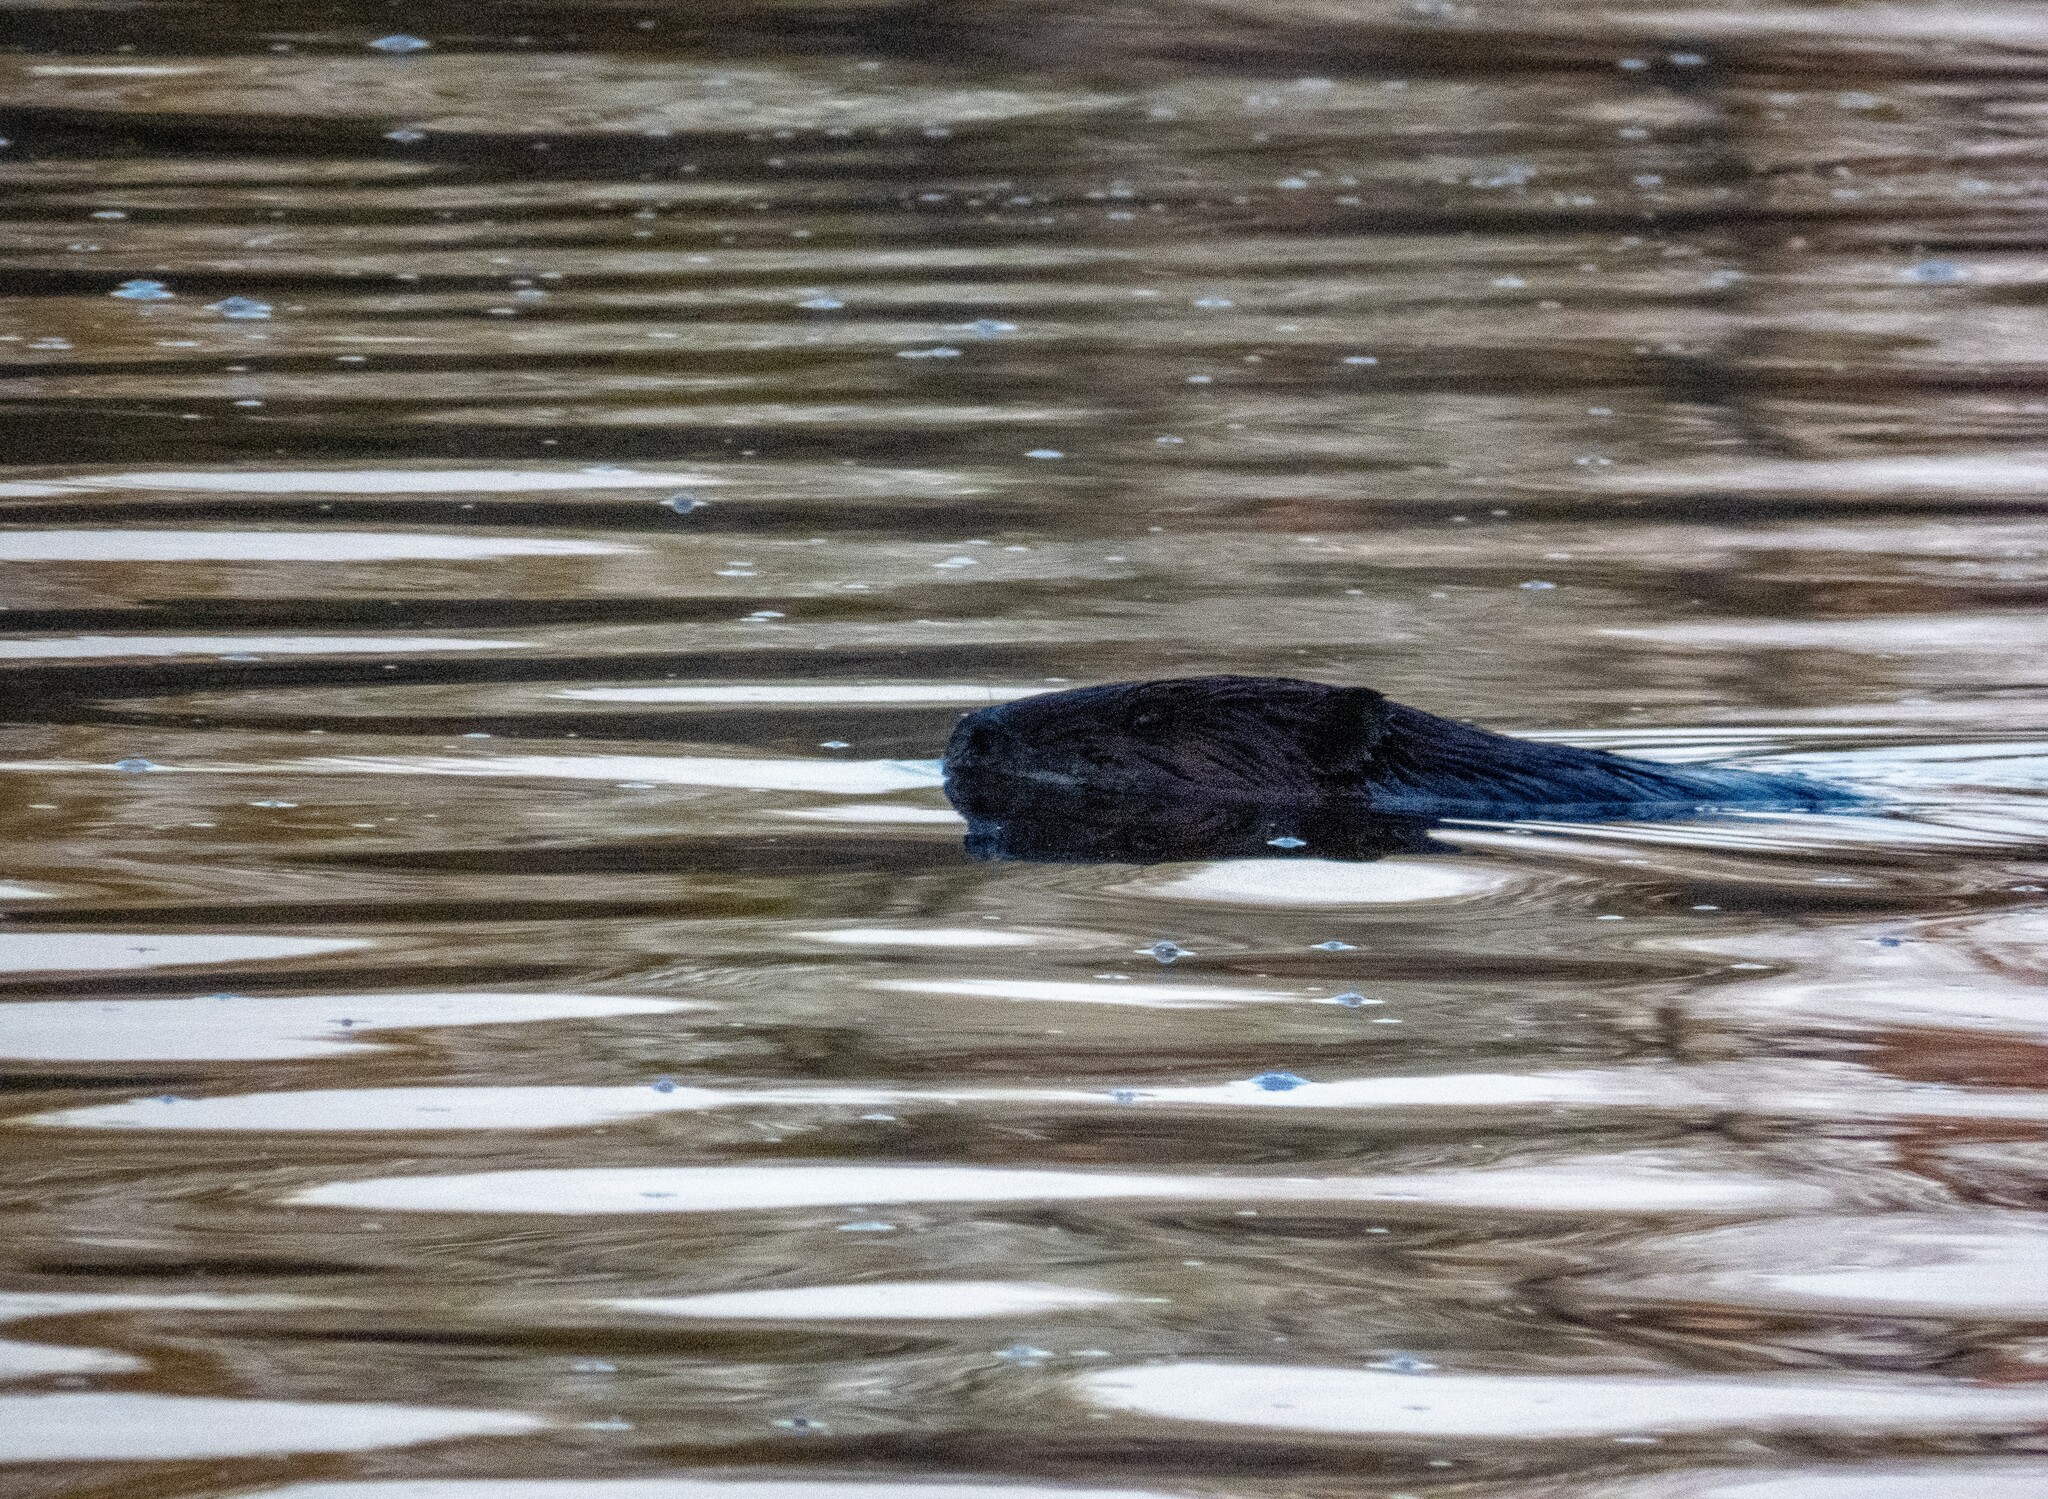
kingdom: Animalia
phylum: Chordata
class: Mammalia
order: Rodentia
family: Castoridae
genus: Castor
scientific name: Castor canadensis
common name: American beaver
